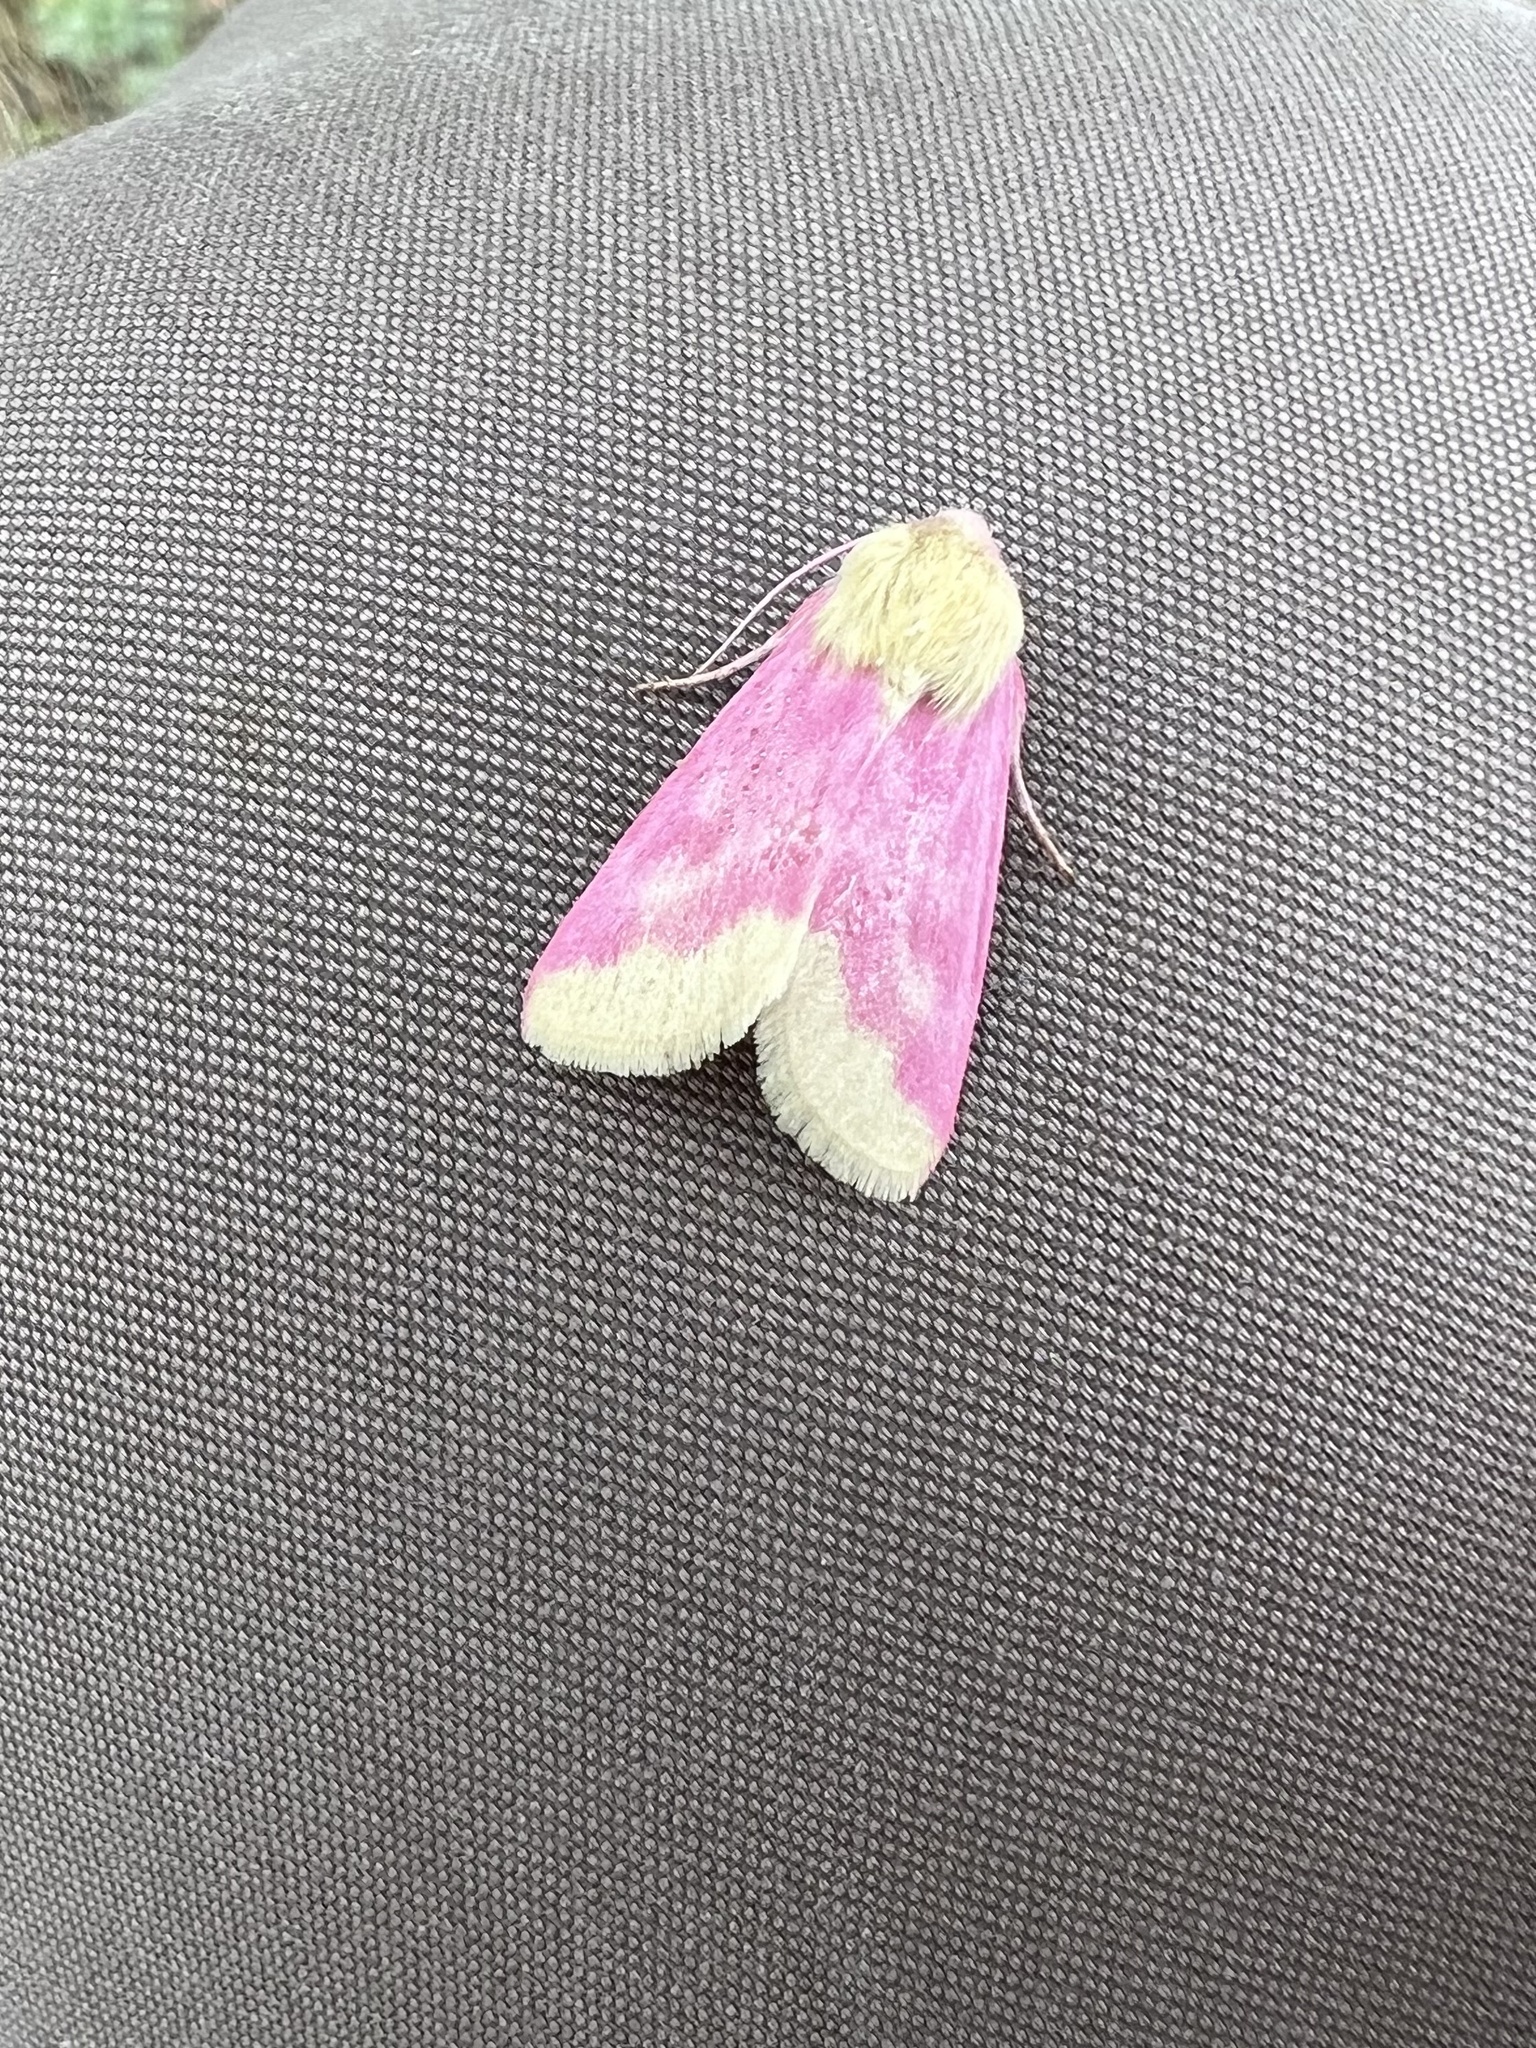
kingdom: Animalia
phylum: Arthropoda
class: Insecta
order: Lepidoptera
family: Noctuidae
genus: Schinia
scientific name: Schinia florida
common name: Primrose moth
